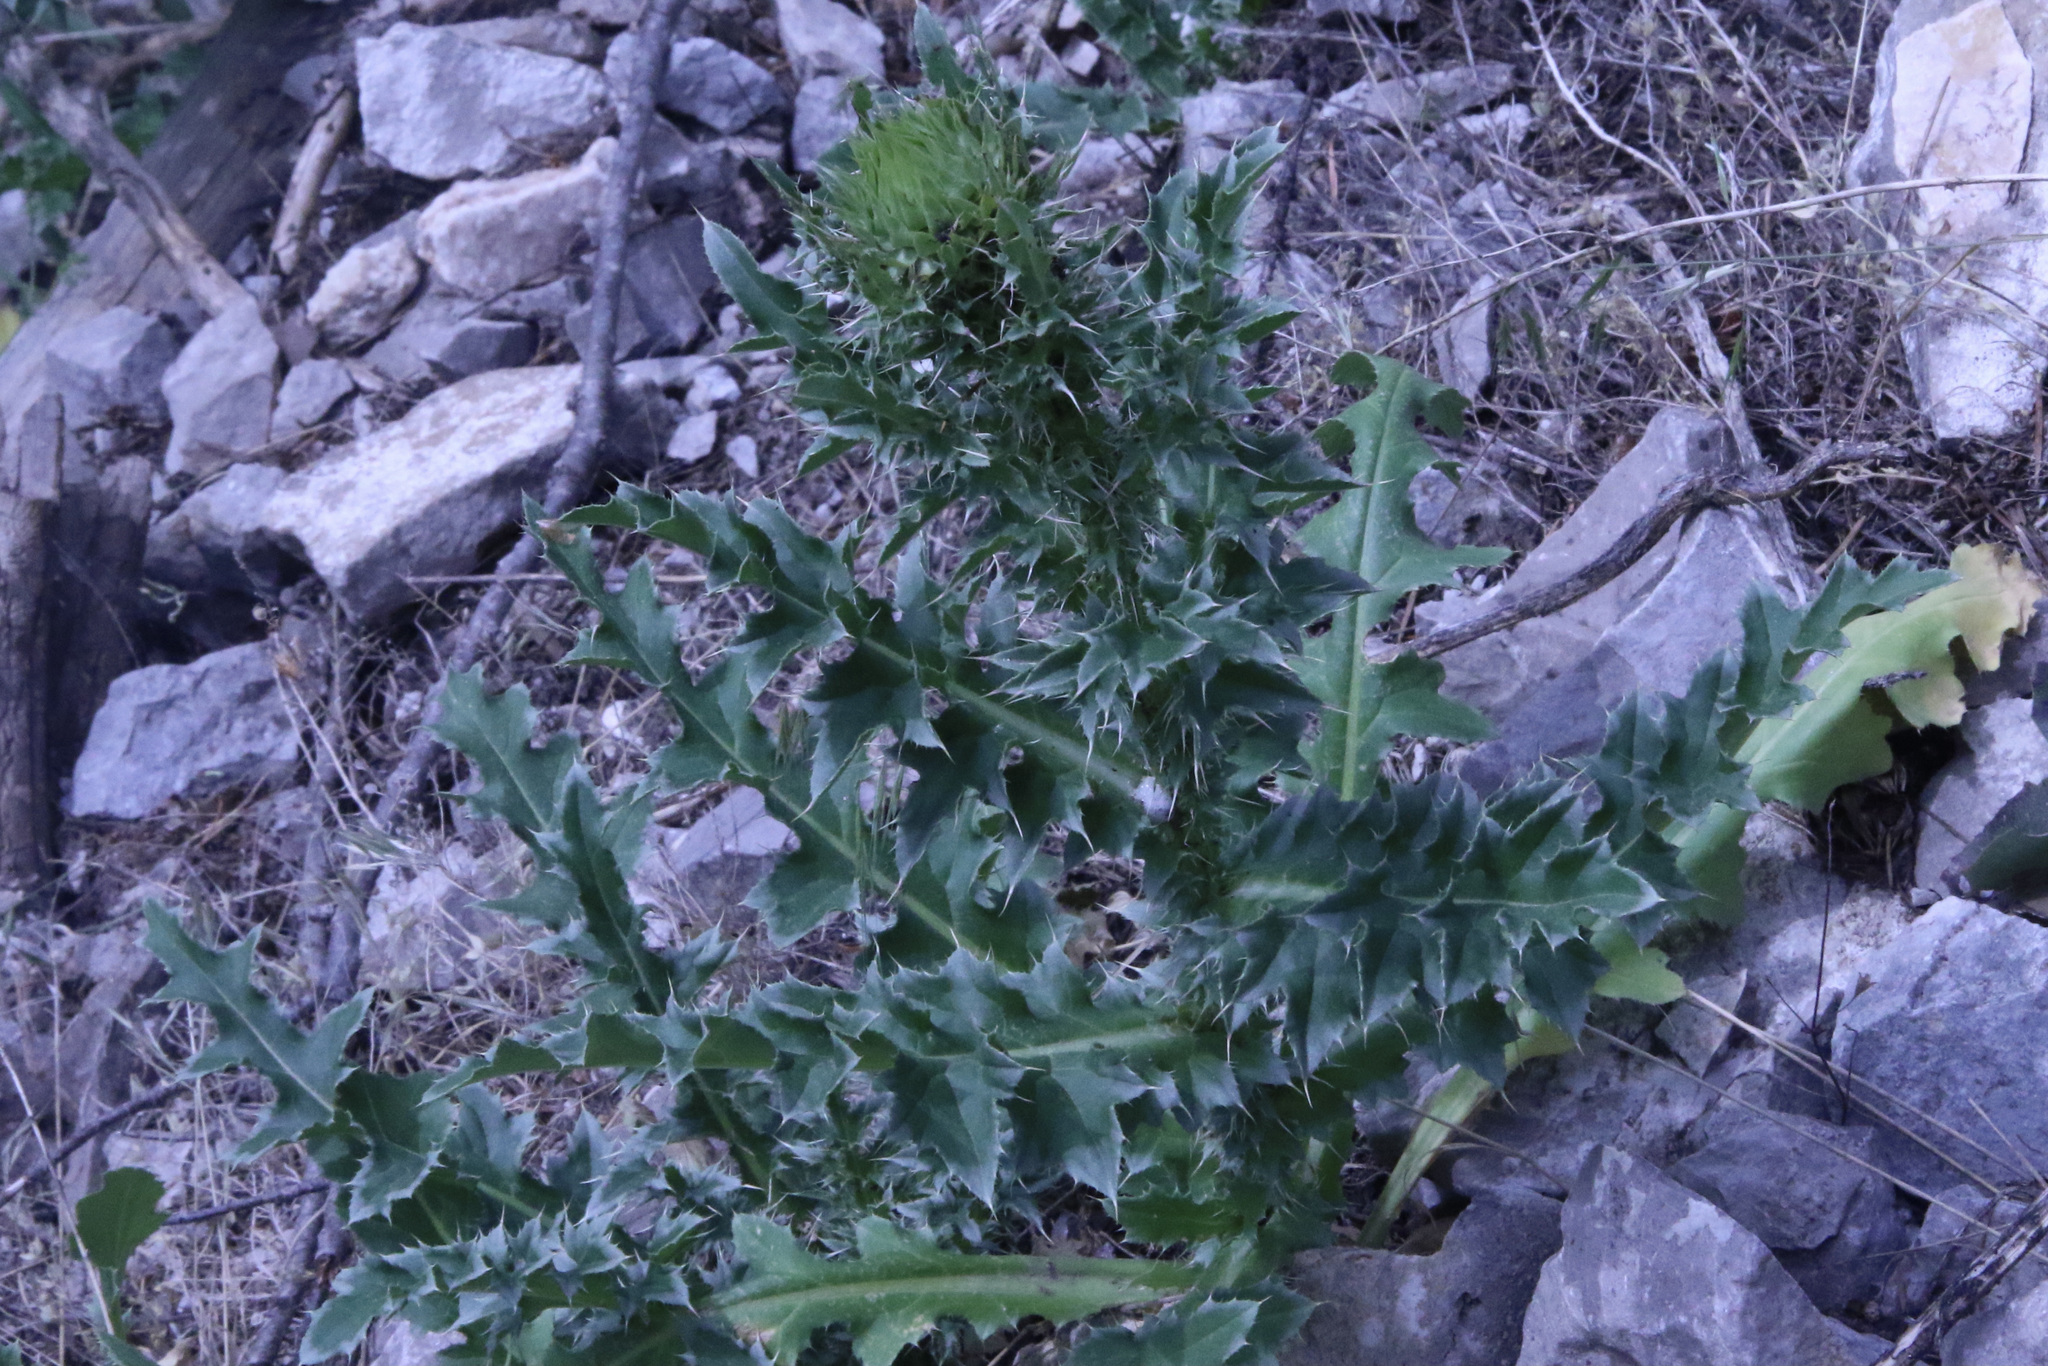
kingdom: Plantae
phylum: Tracheophyta
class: Magnoliopsida
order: Asterales
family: Asteraceae
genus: Carduus
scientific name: Carduus nutans
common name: Musk thistle
